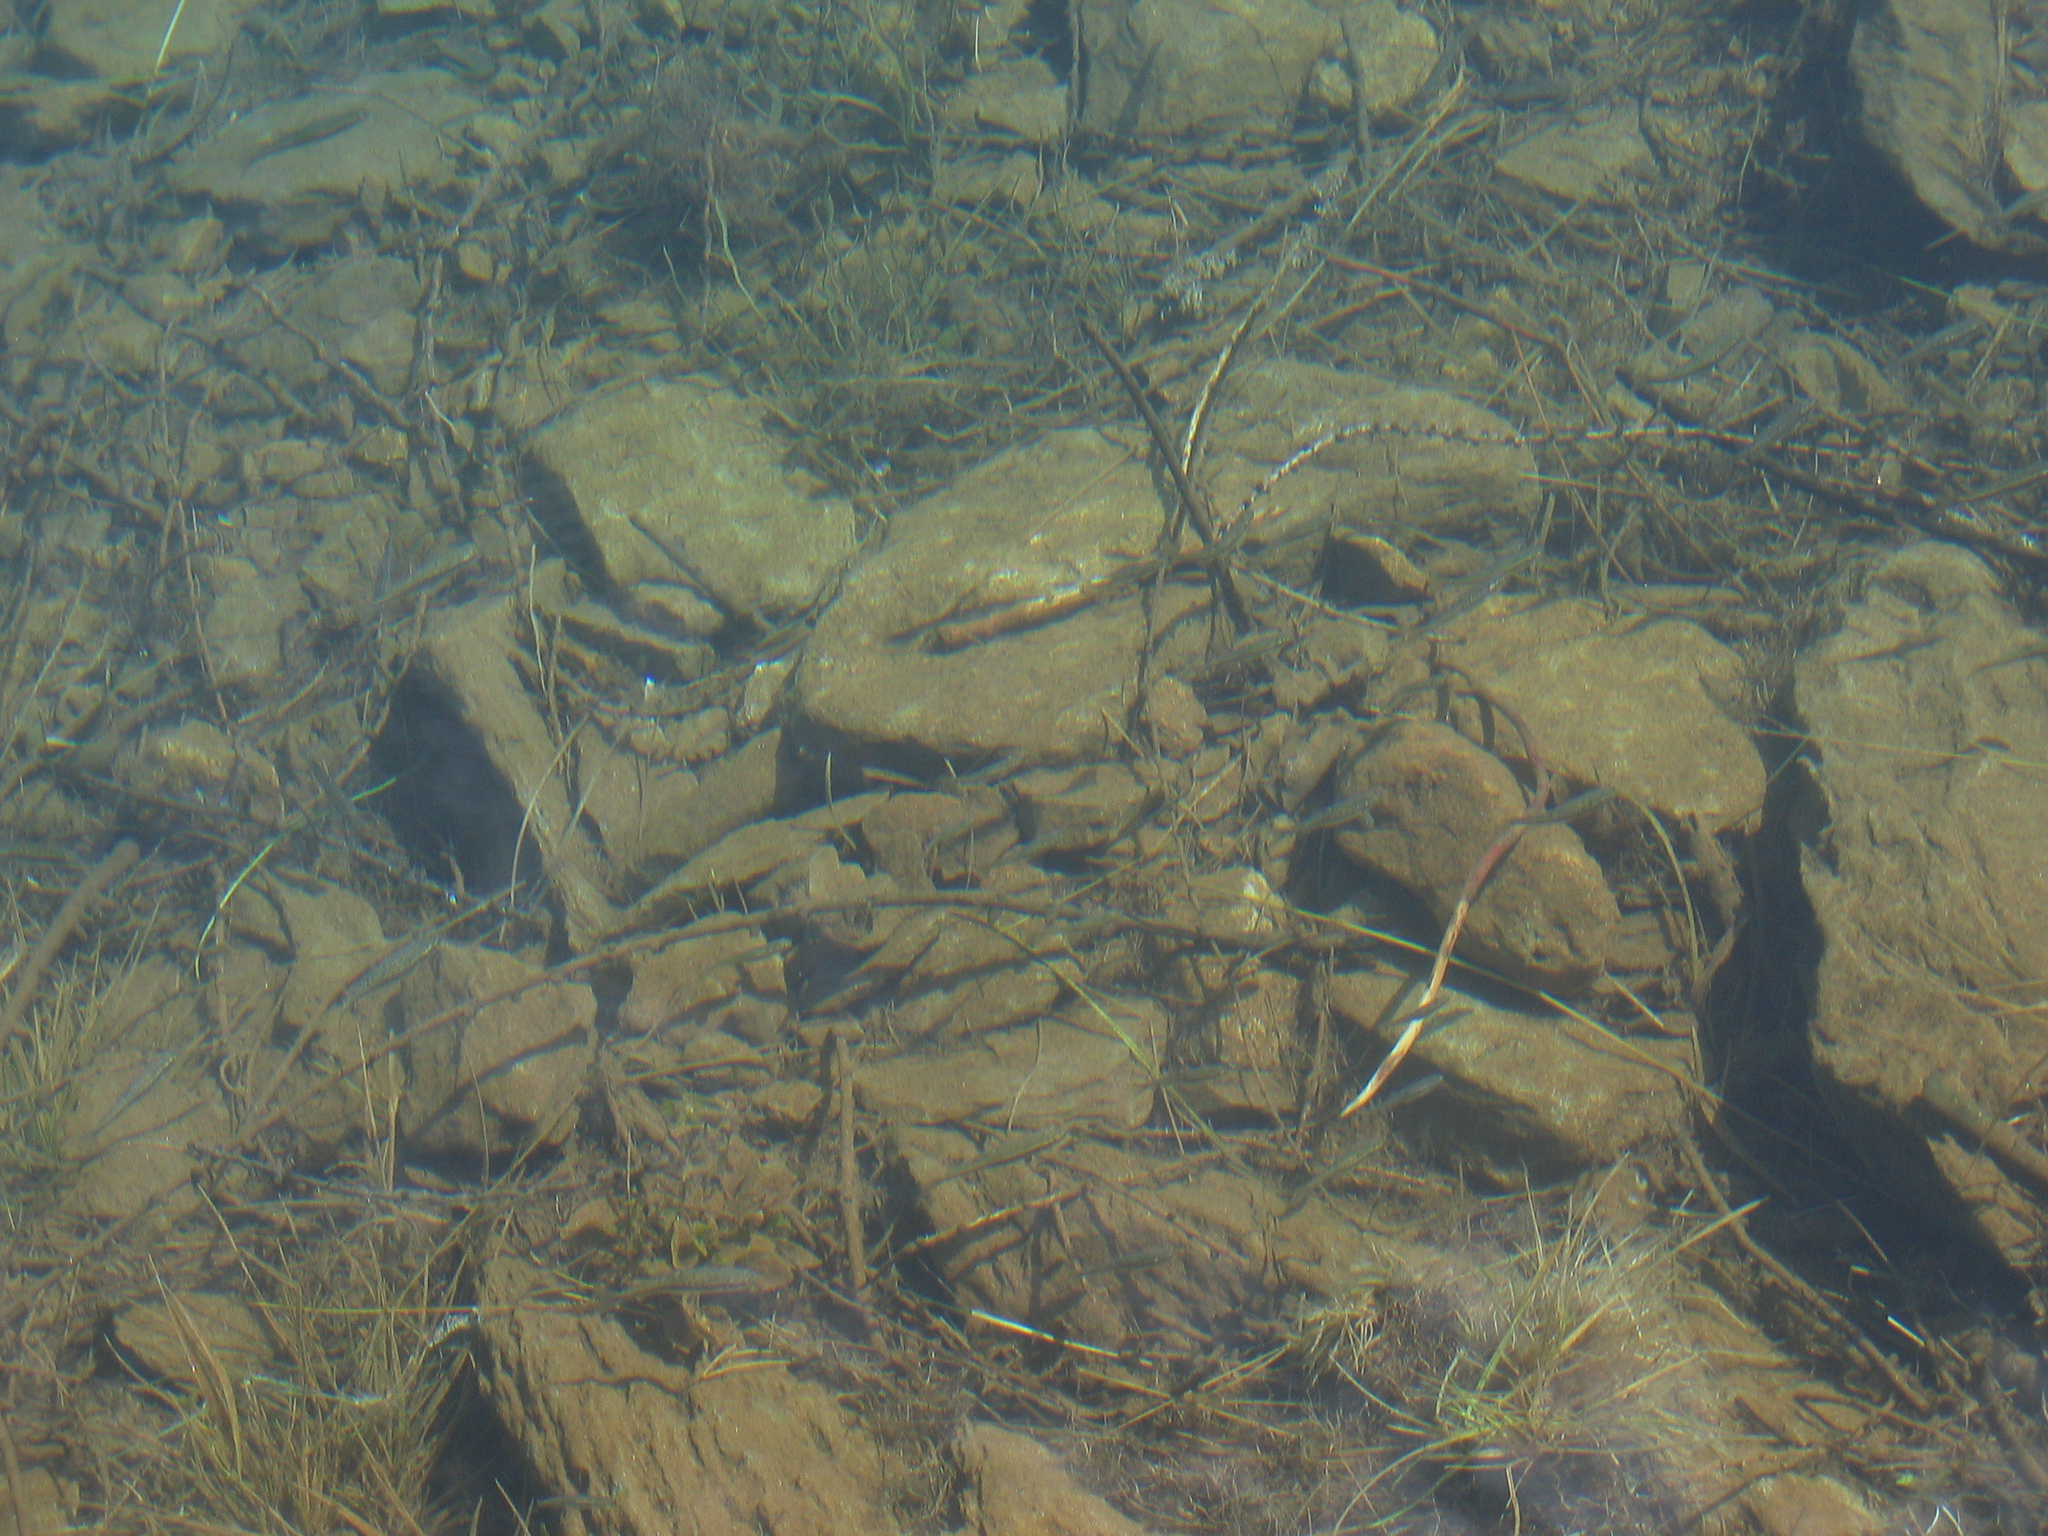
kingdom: Animalia
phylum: Chordata
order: Cypriniformes
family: Cyprinidae
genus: Phoxinus
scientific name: Phoxinus
